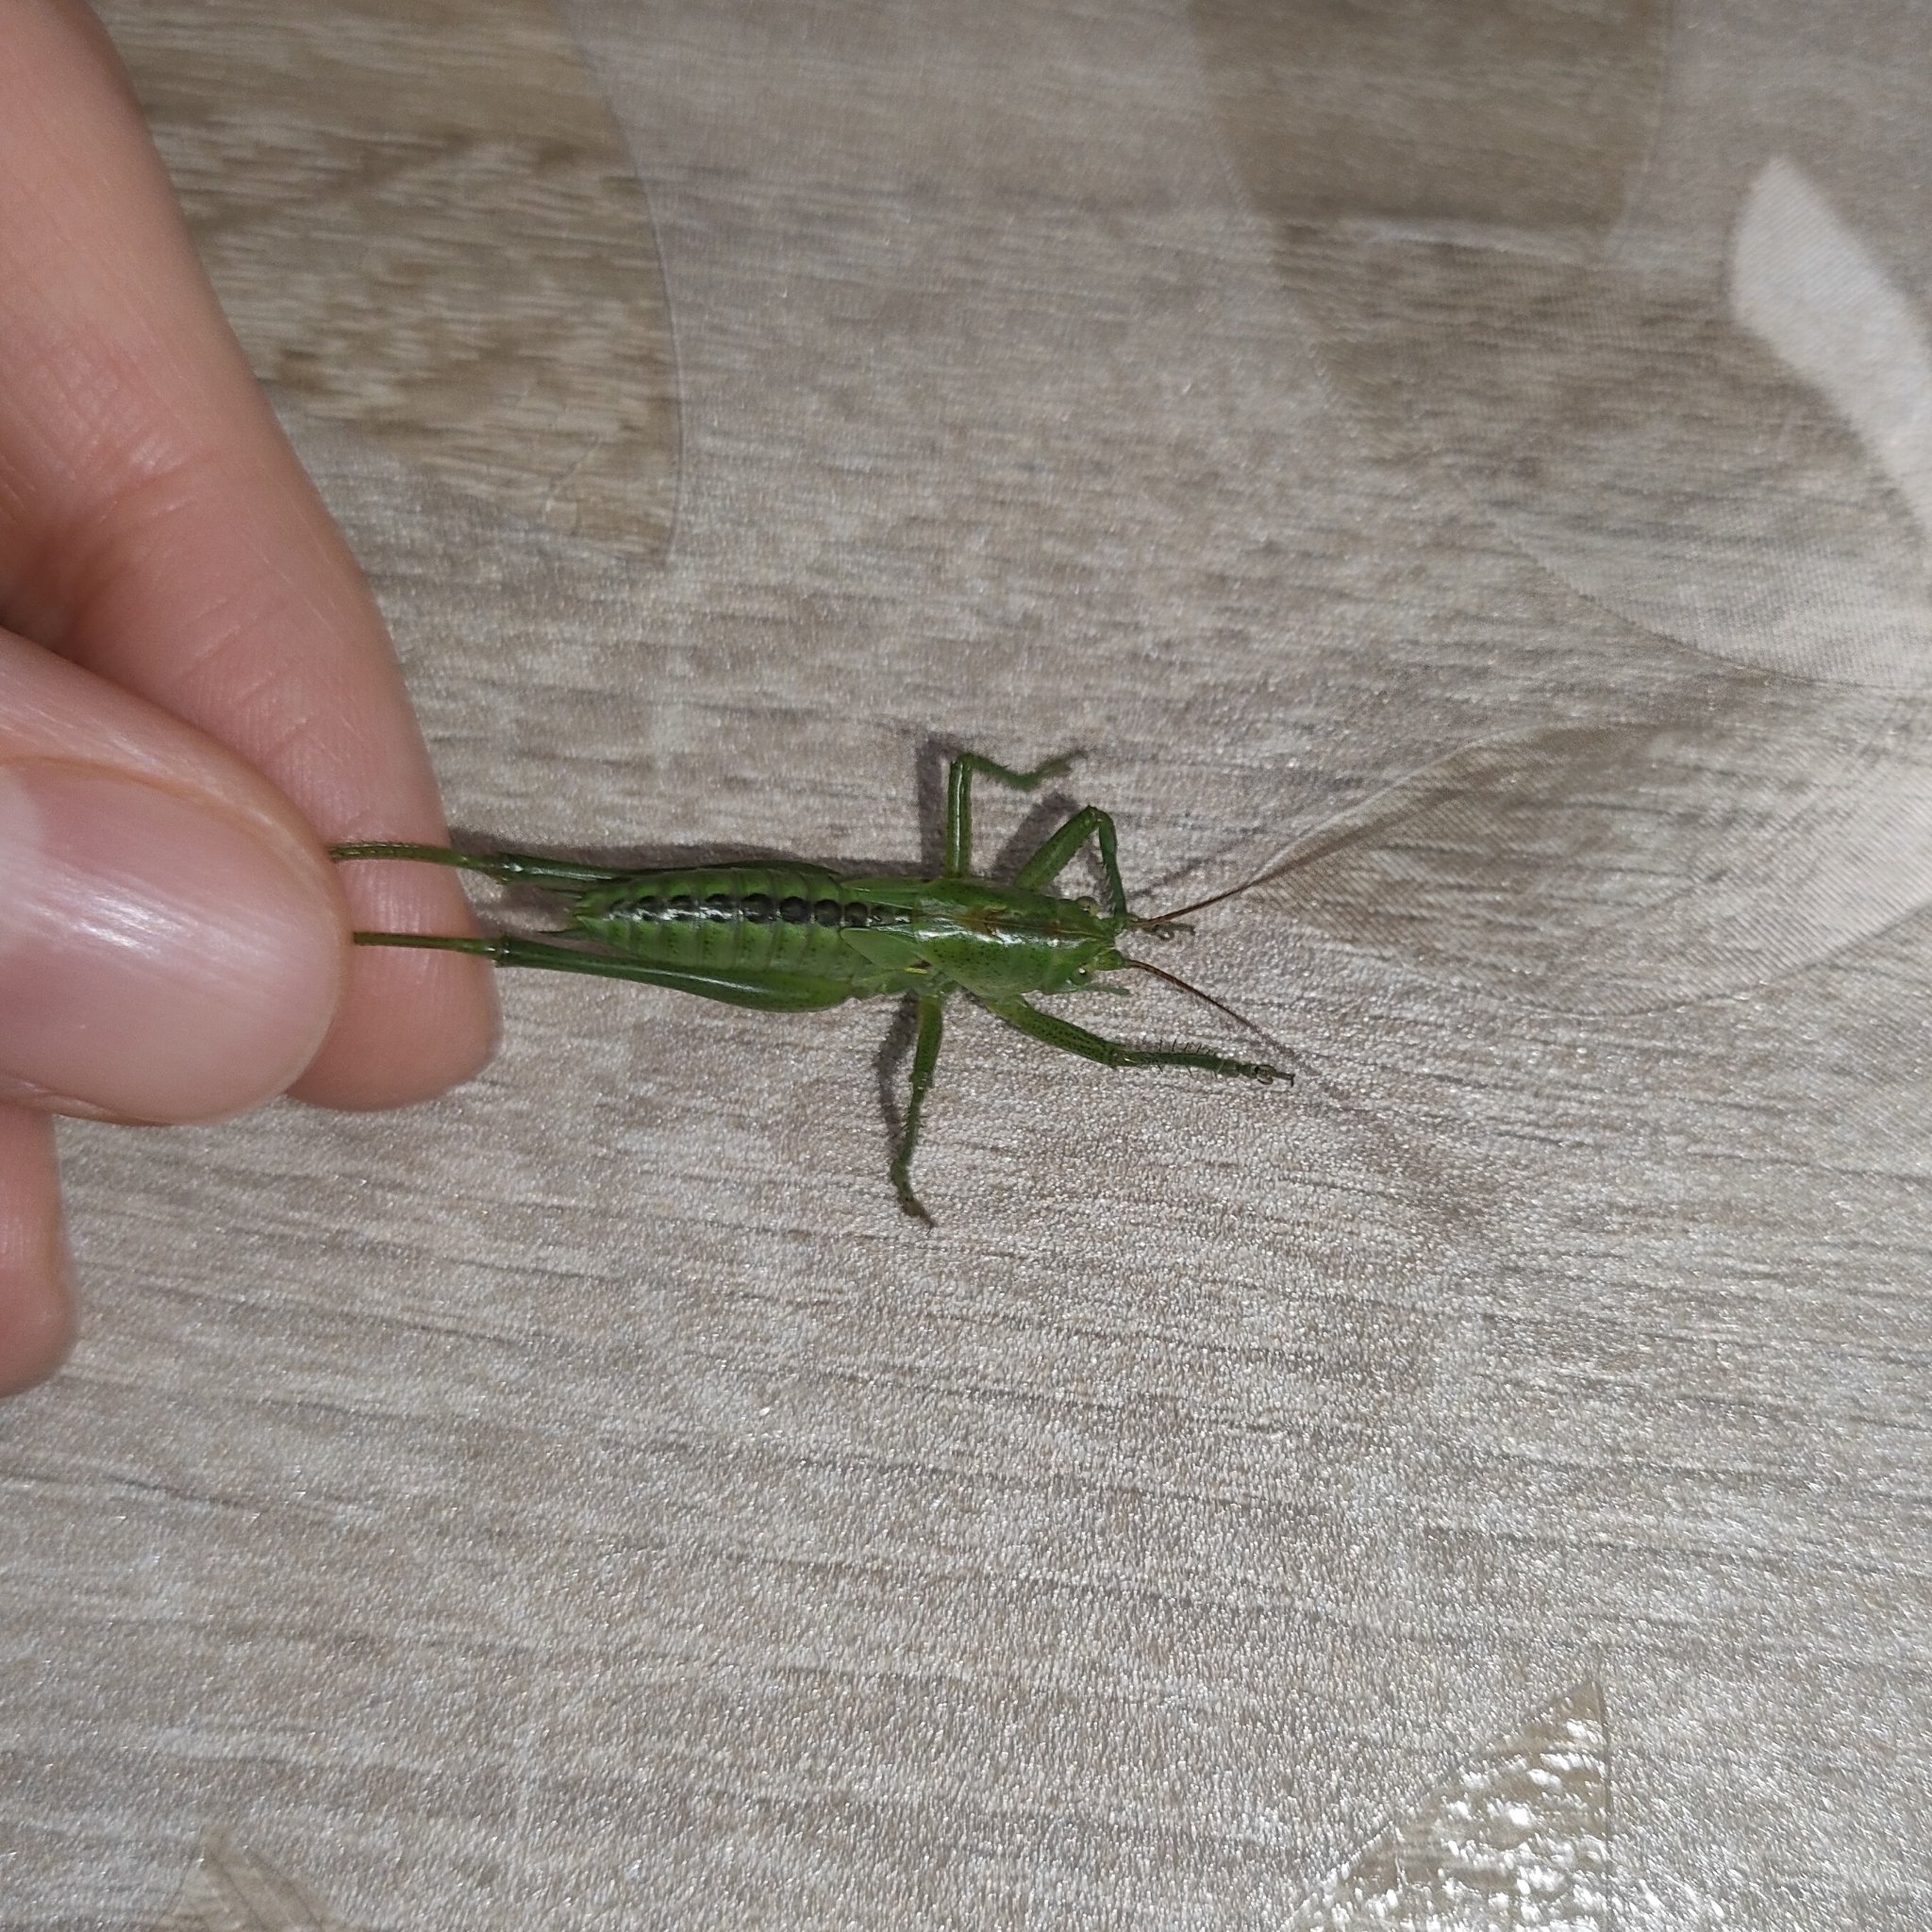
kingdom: Animalia
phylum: Arthropoda
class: Insecta
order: Orthoptera
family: Tettigoniidae
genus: Tettigonia
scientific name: Tettigonia viridissima
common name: Great green bush-cricket
